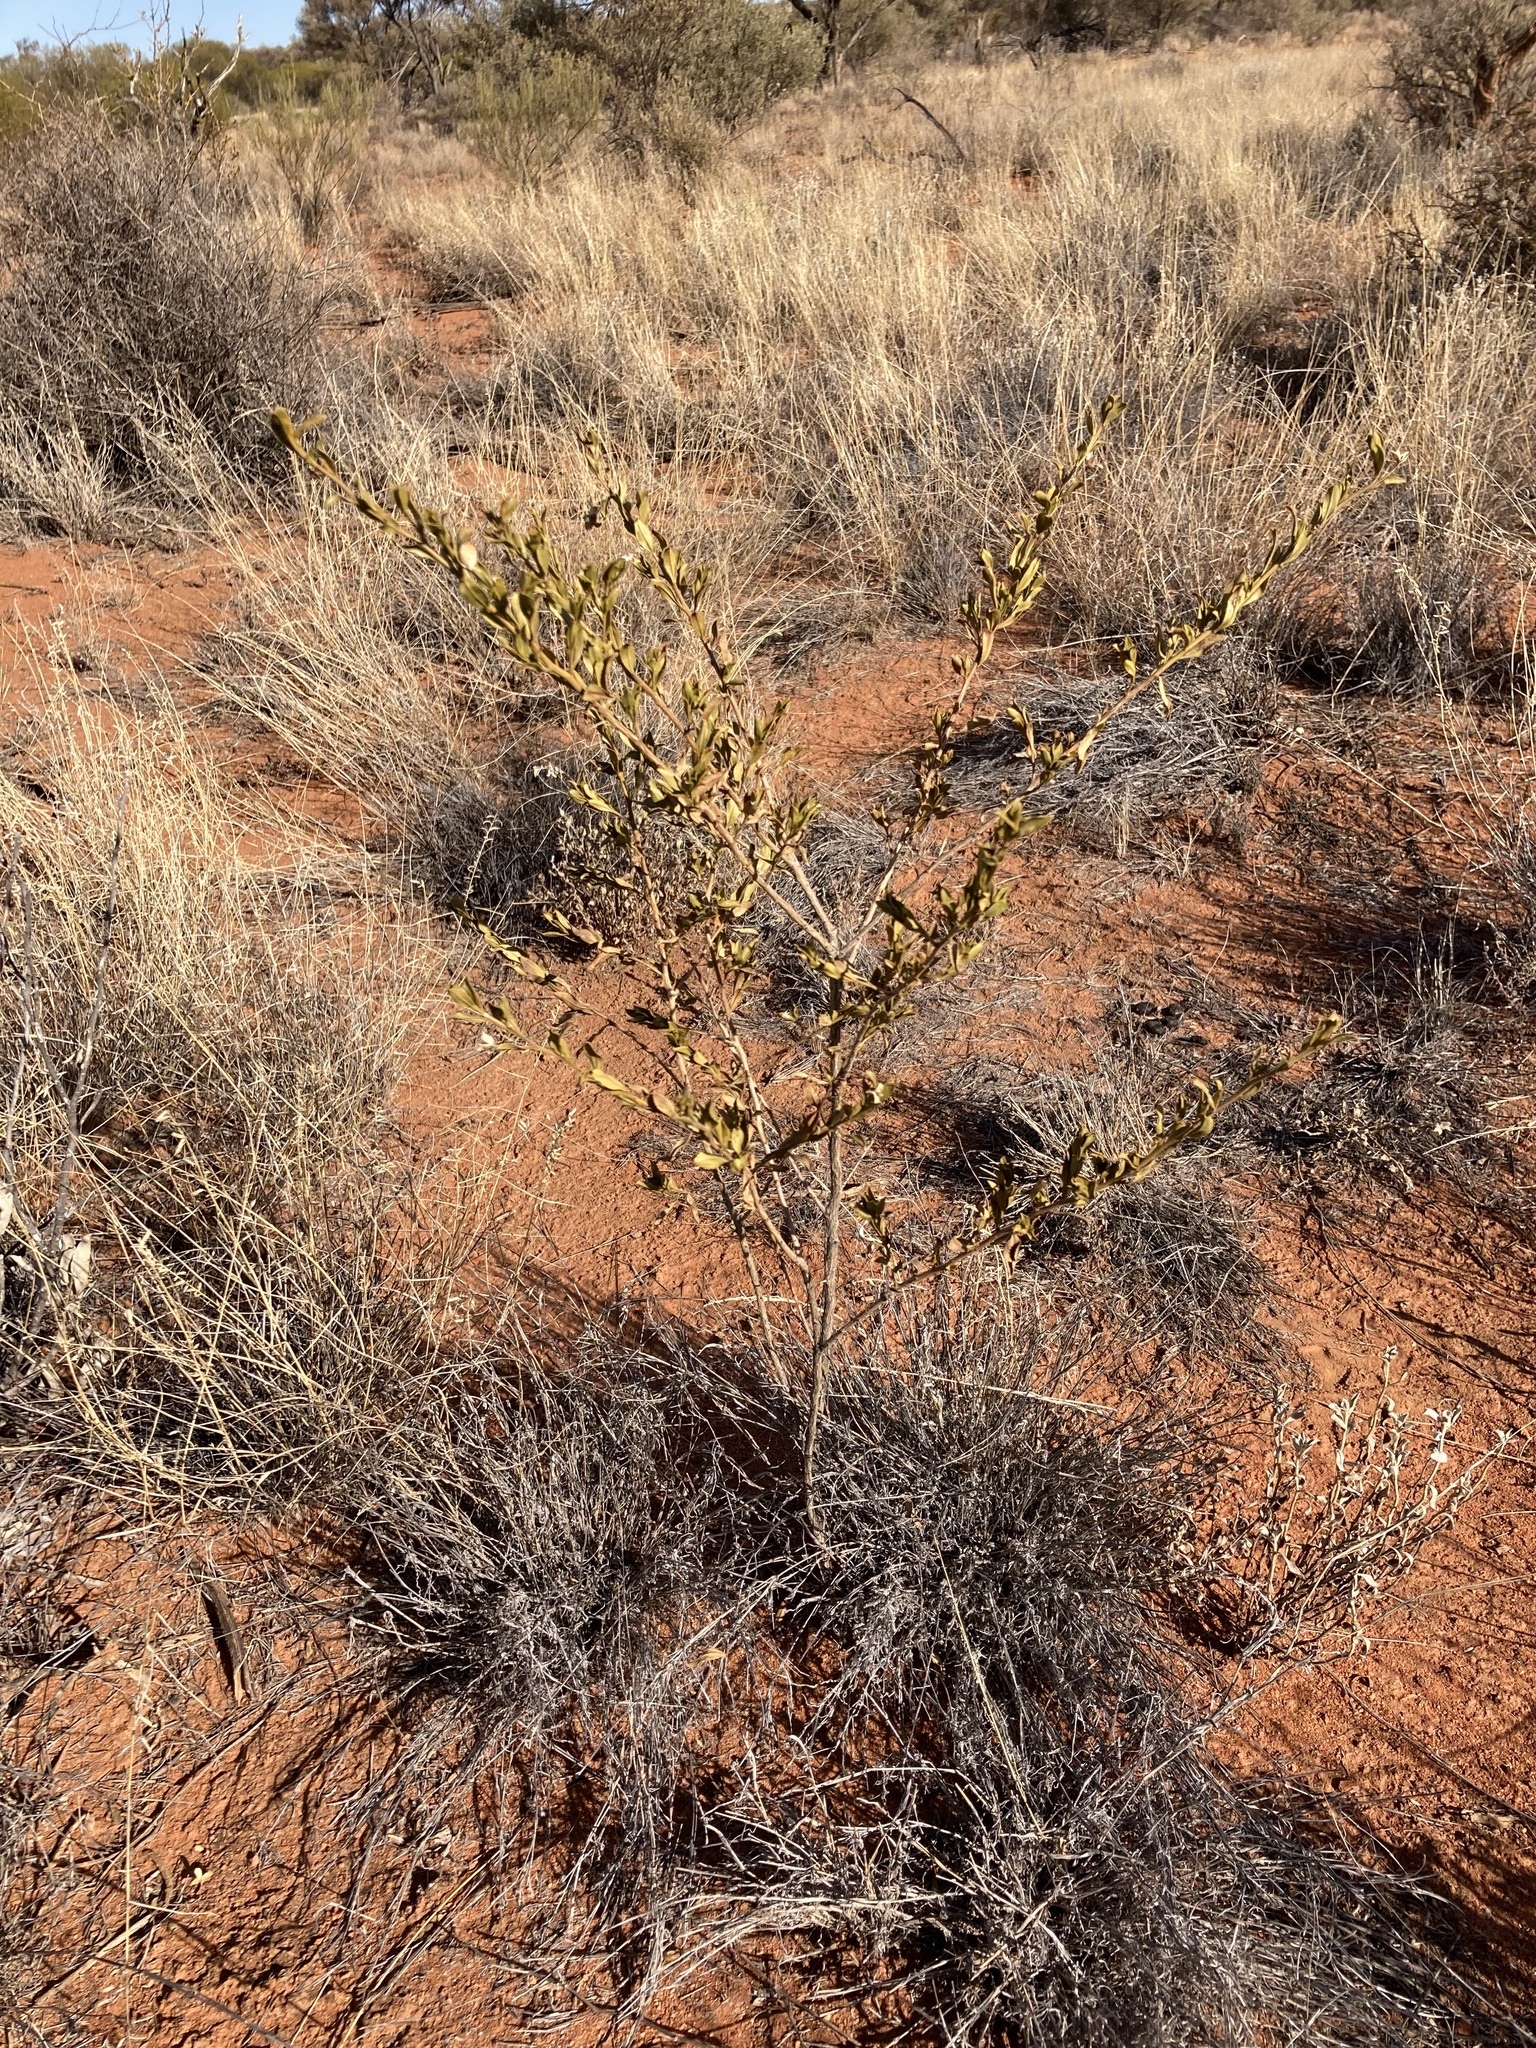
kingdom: Plantae
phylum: Tracheophyta
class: Magnoliopsida
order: Lamiales
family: Scrophulariaceae
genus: Eremophila
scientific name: Eremophila georgei
